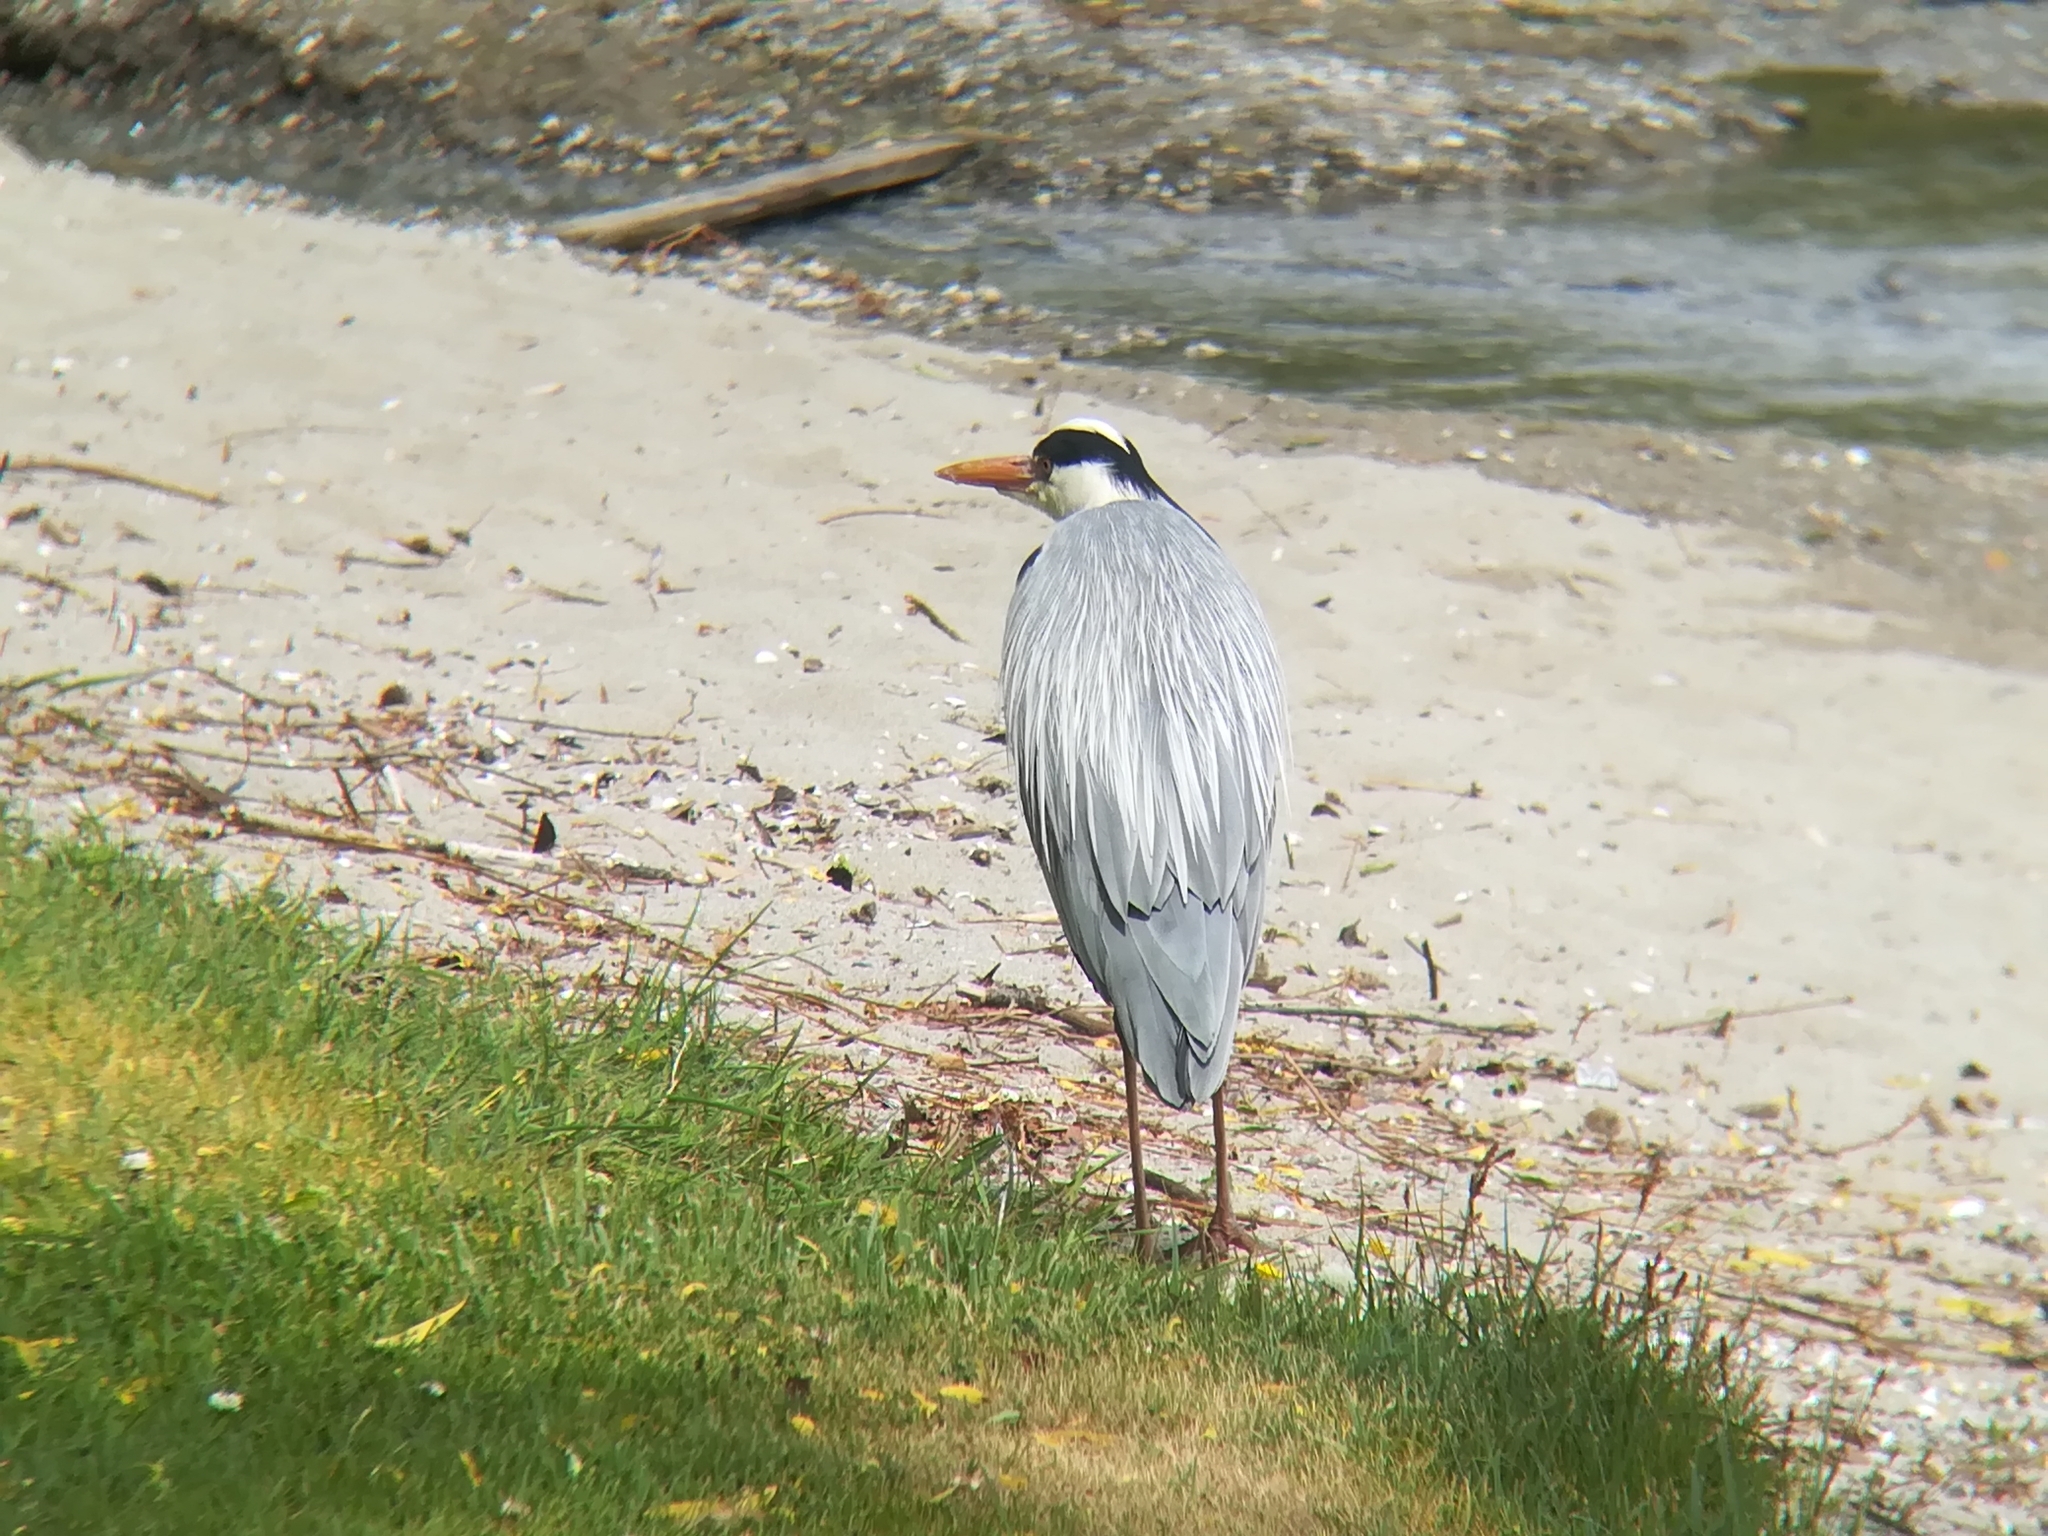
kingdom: Animalia
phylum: Chordata
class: Aves
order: Pelecaniformes
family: Ardeidae
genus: Ardea
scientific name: Ardea cinerea
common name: Grey heron
